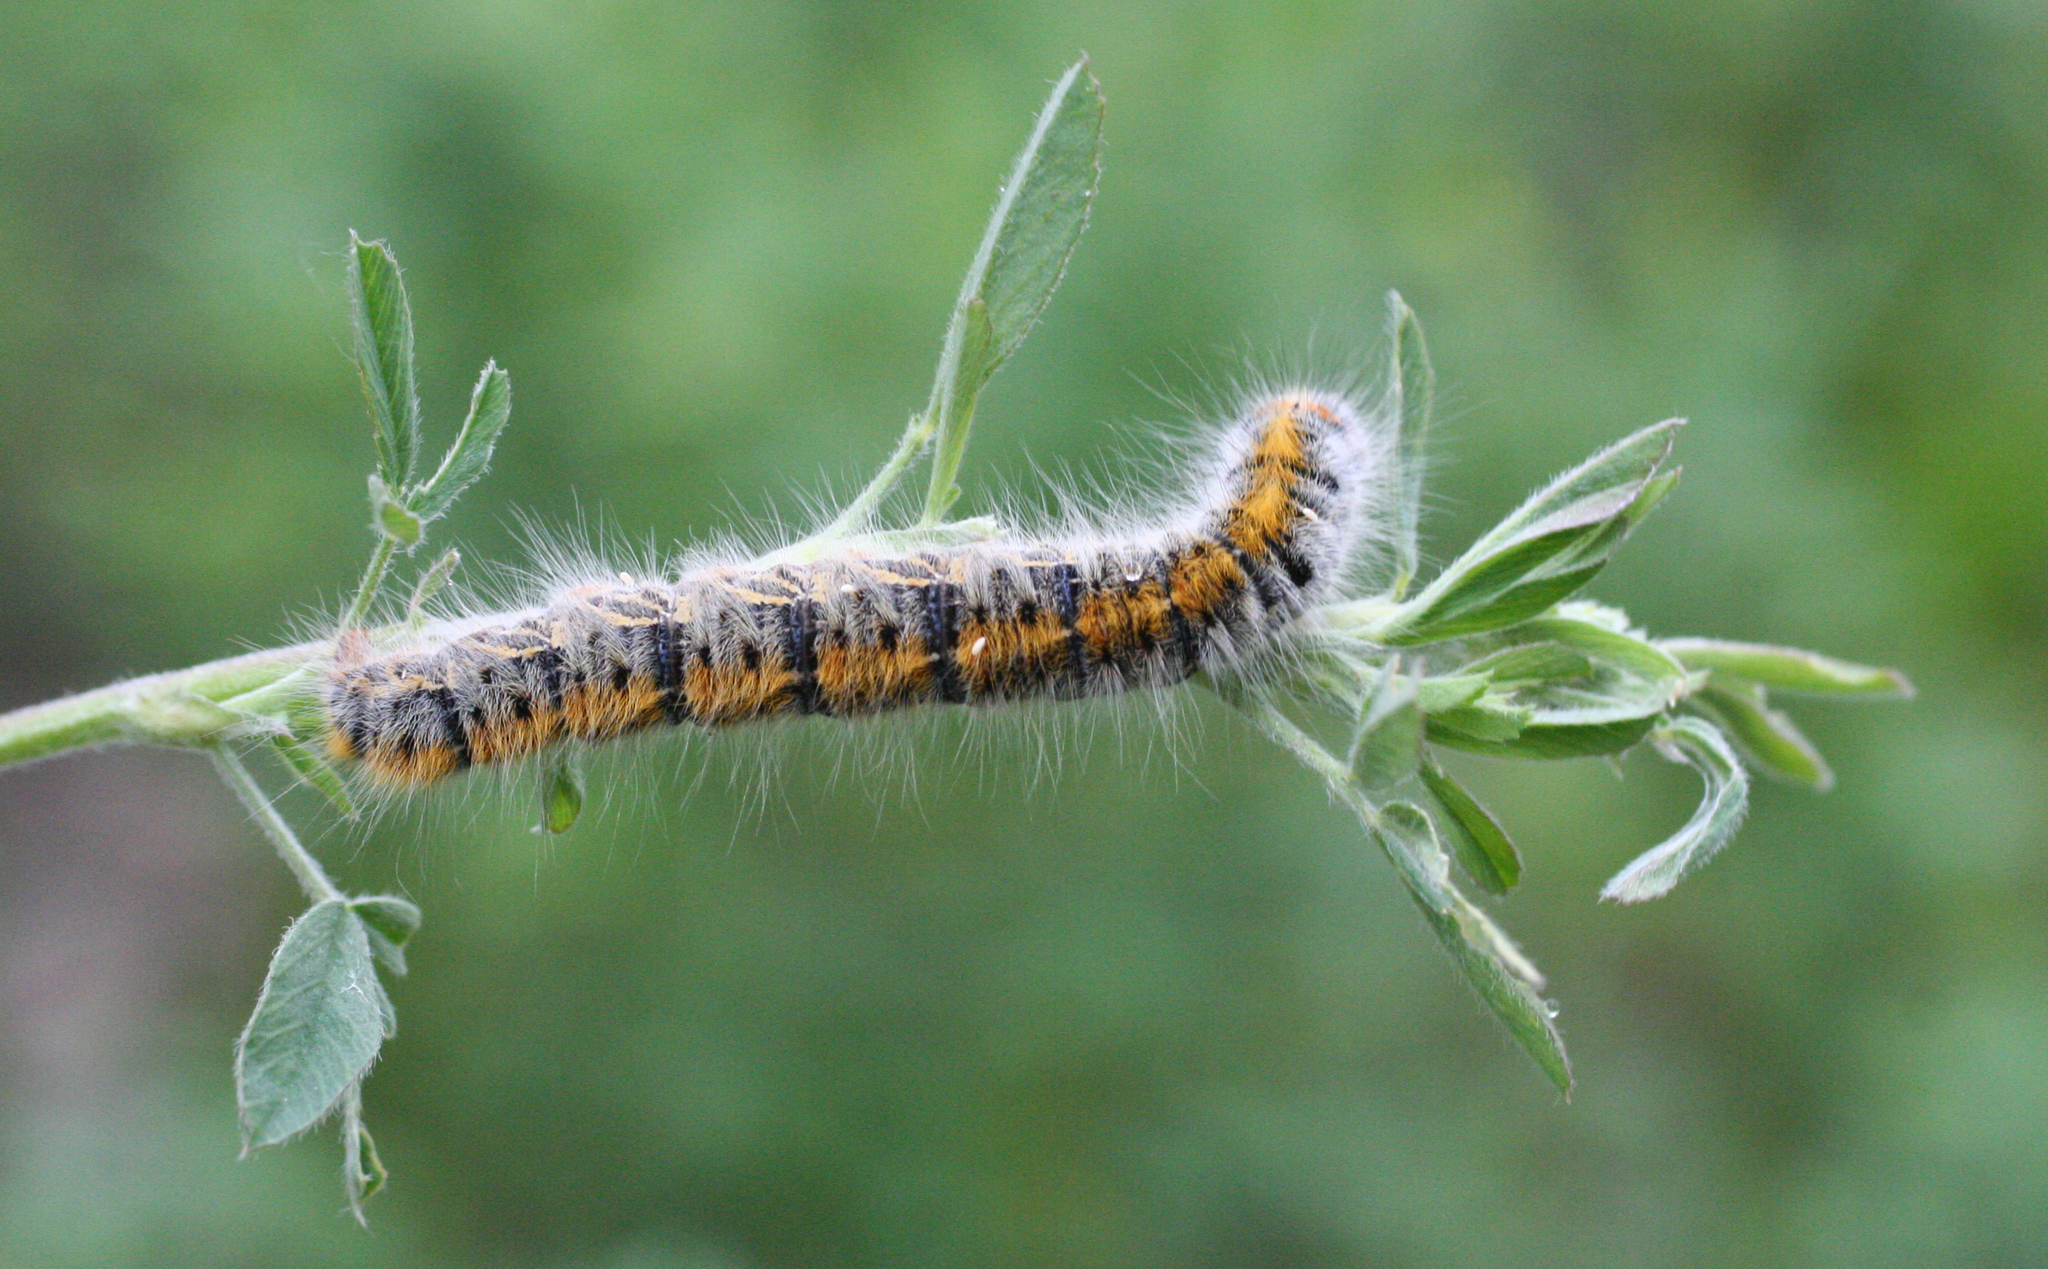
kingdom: Animalia
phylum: Arthropoda
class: Insecta
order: Lepidoptera
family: Lasiocampidae
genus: Lasiocampa
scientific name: Lasiocampa trifolii
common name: Grass eggar
